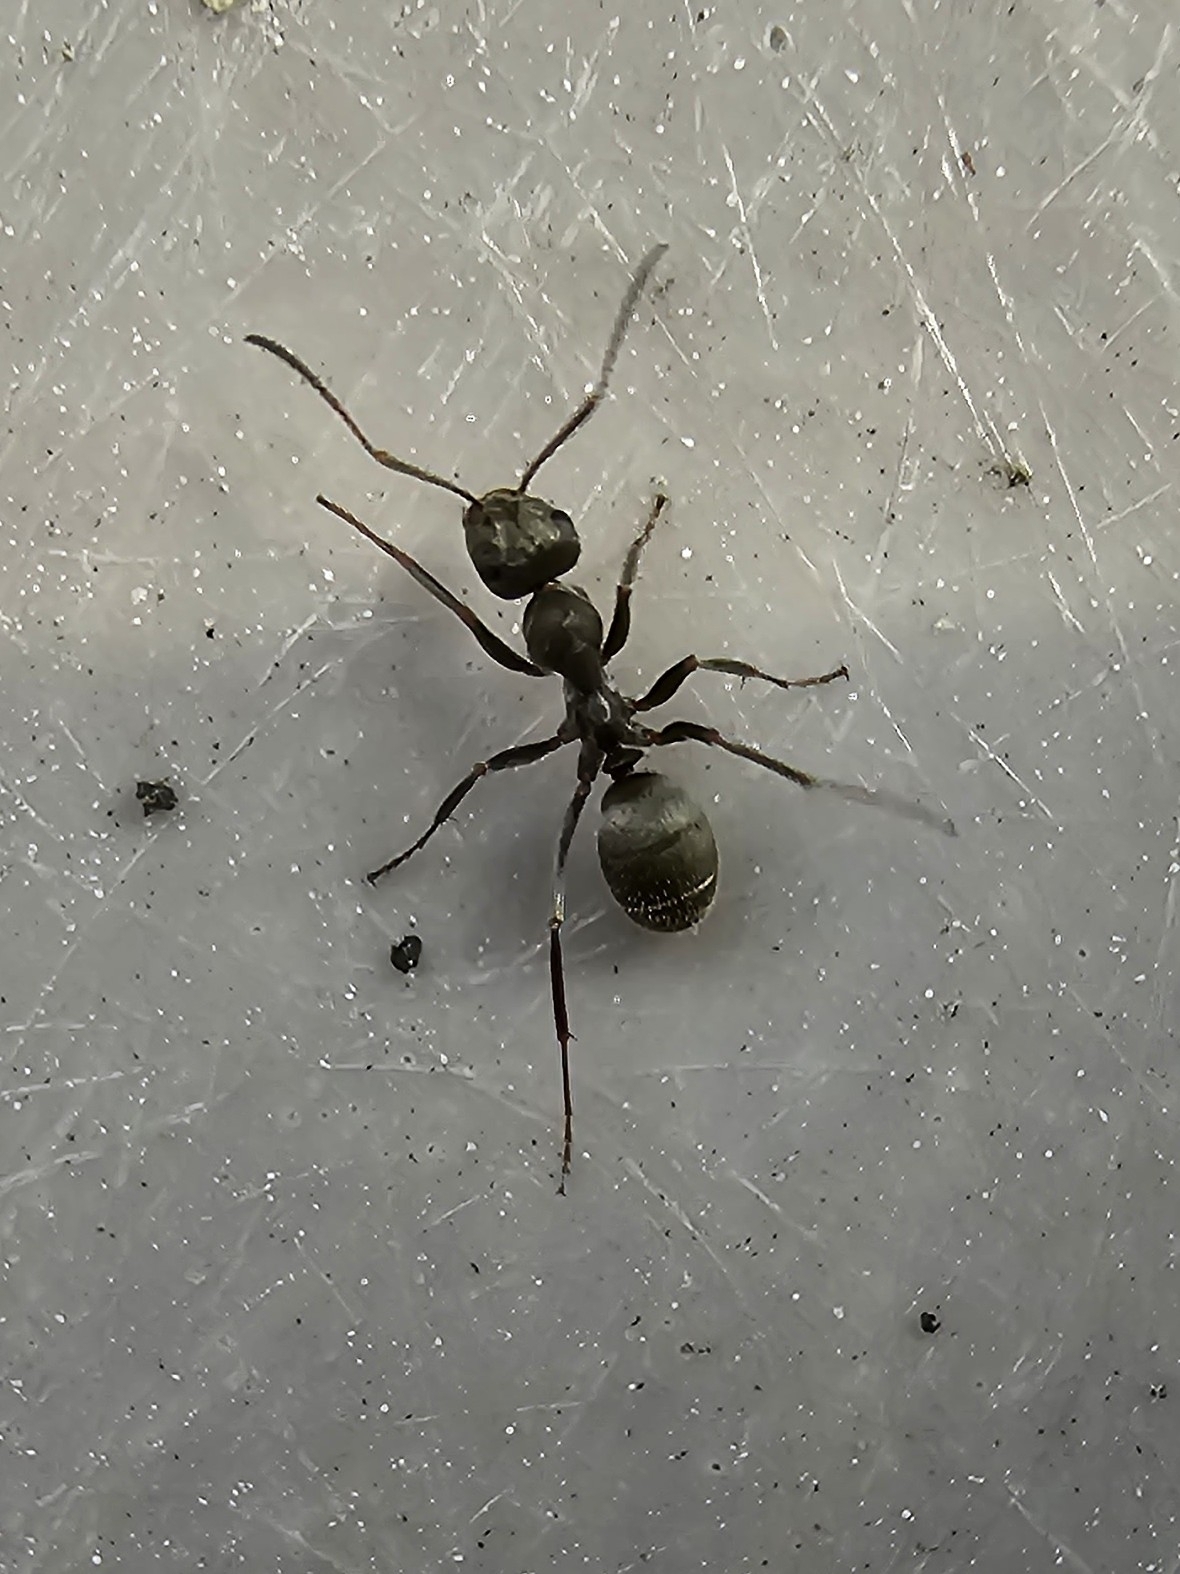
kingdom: Animalia
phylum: Arthropoda
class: Insecta
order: Hymenoptera
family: Formicidae
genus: Formica
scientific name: Formica cinerea
